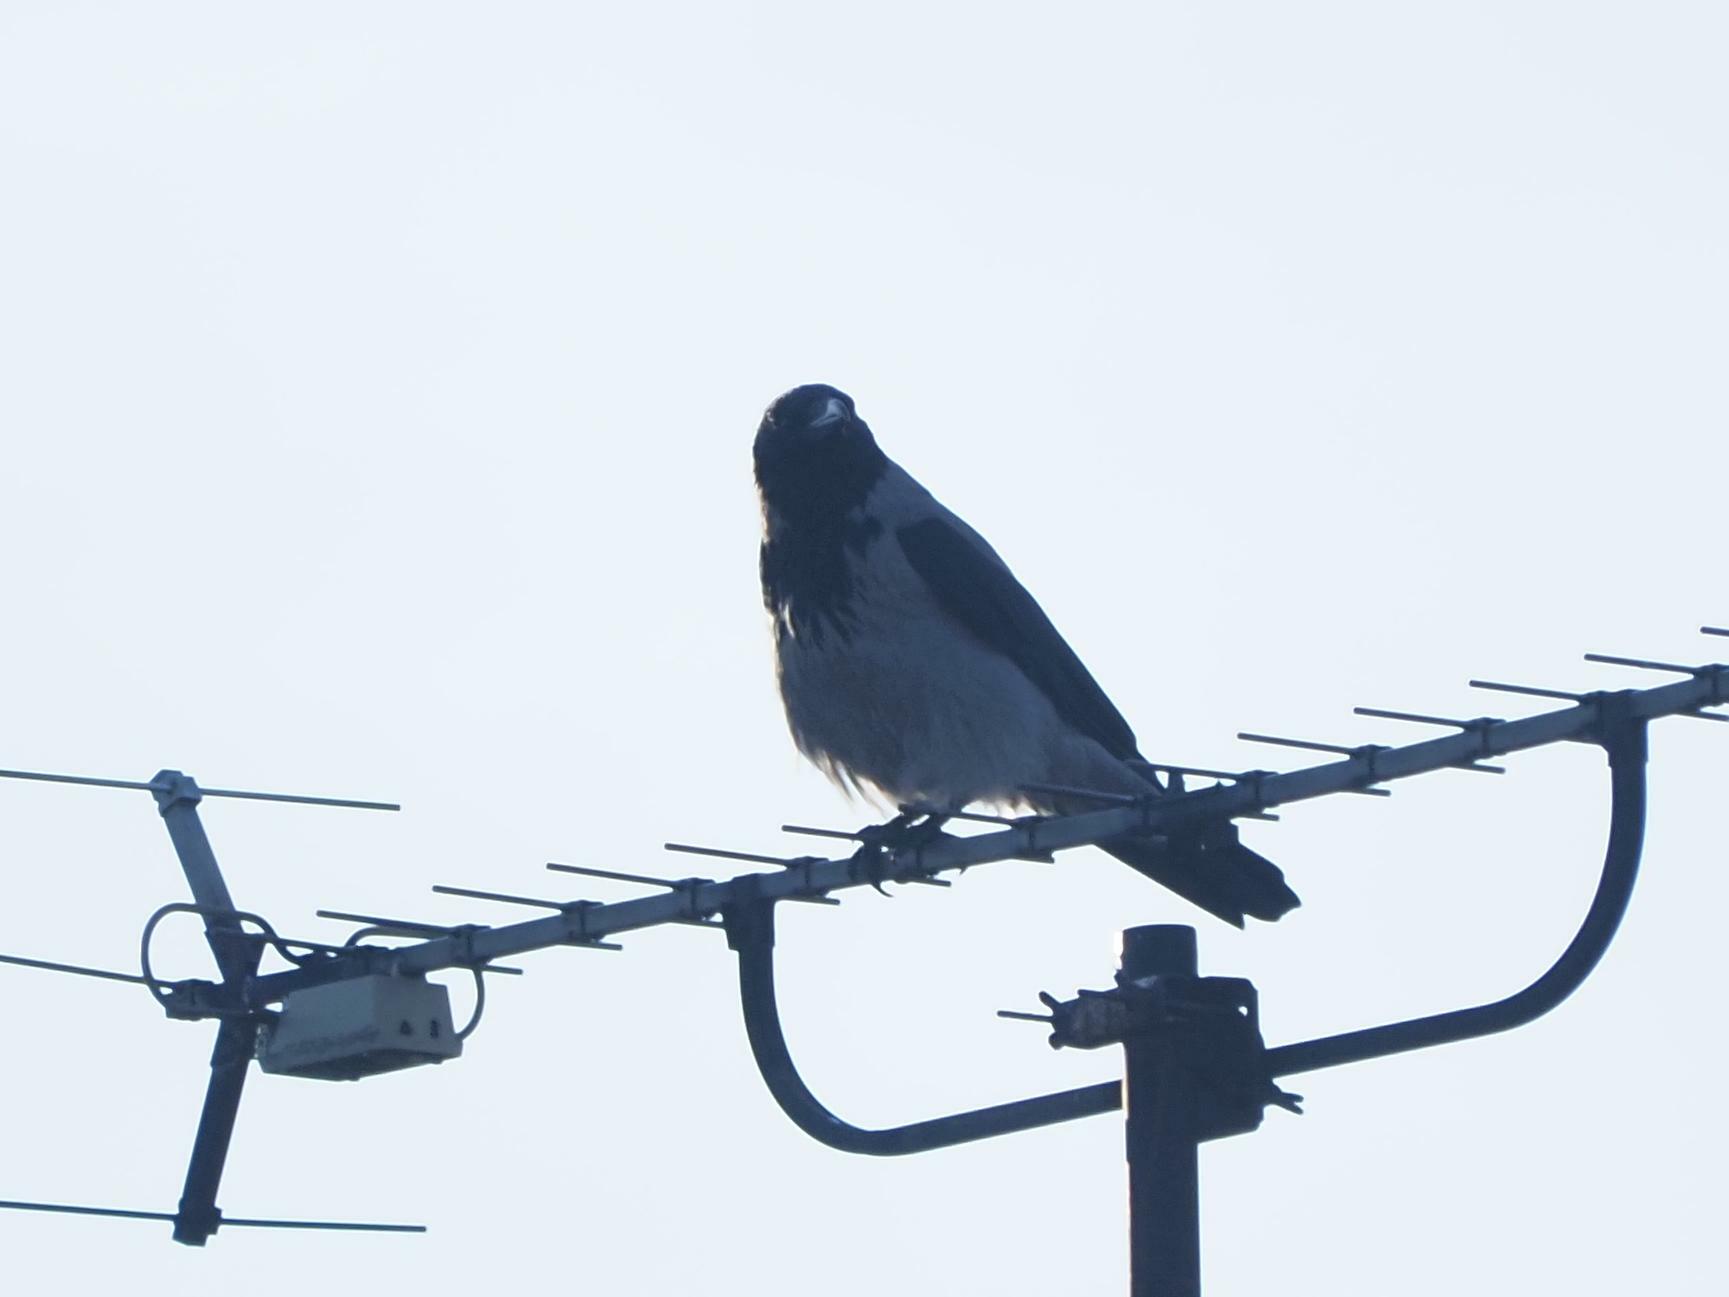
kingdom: Animalia
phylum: Chordata
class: Aves
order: Passeriformes
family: Corvidae
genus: Corvus
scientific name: Corvus cornix
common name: Hooded crow
